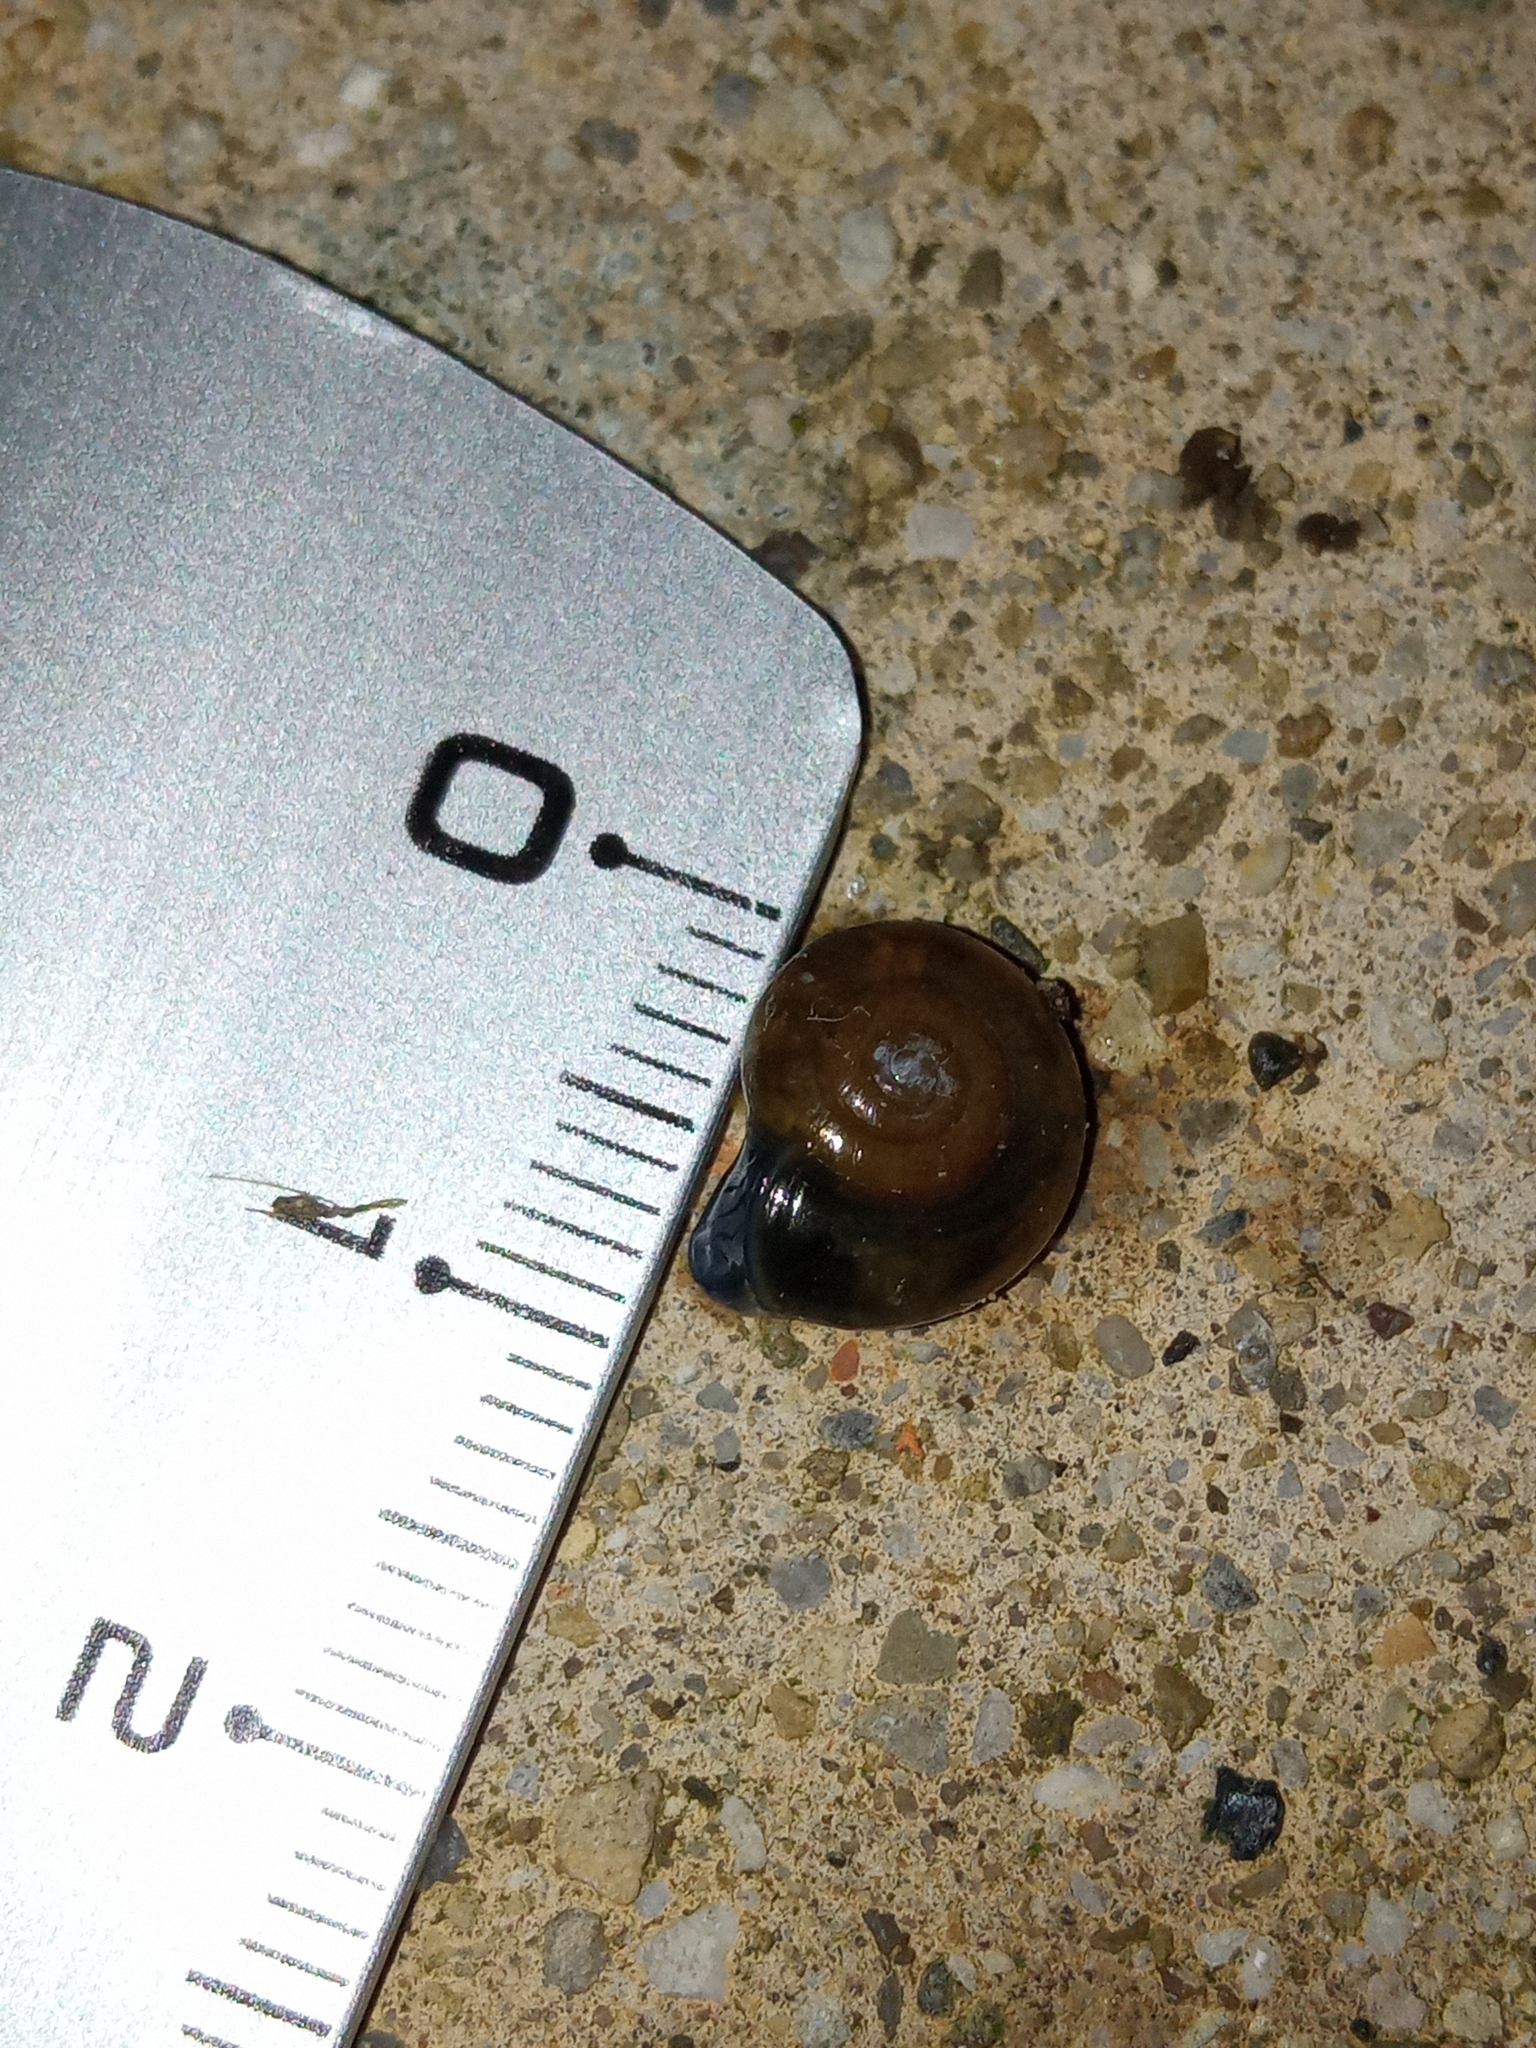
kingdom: Animalia
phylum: Mollusca
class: Gastropoda
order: Stylommatophora
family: Oxychilidae
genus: Oxychilus
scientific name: Oxychilus draparnaudi
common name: Draparnaud's glass snail
